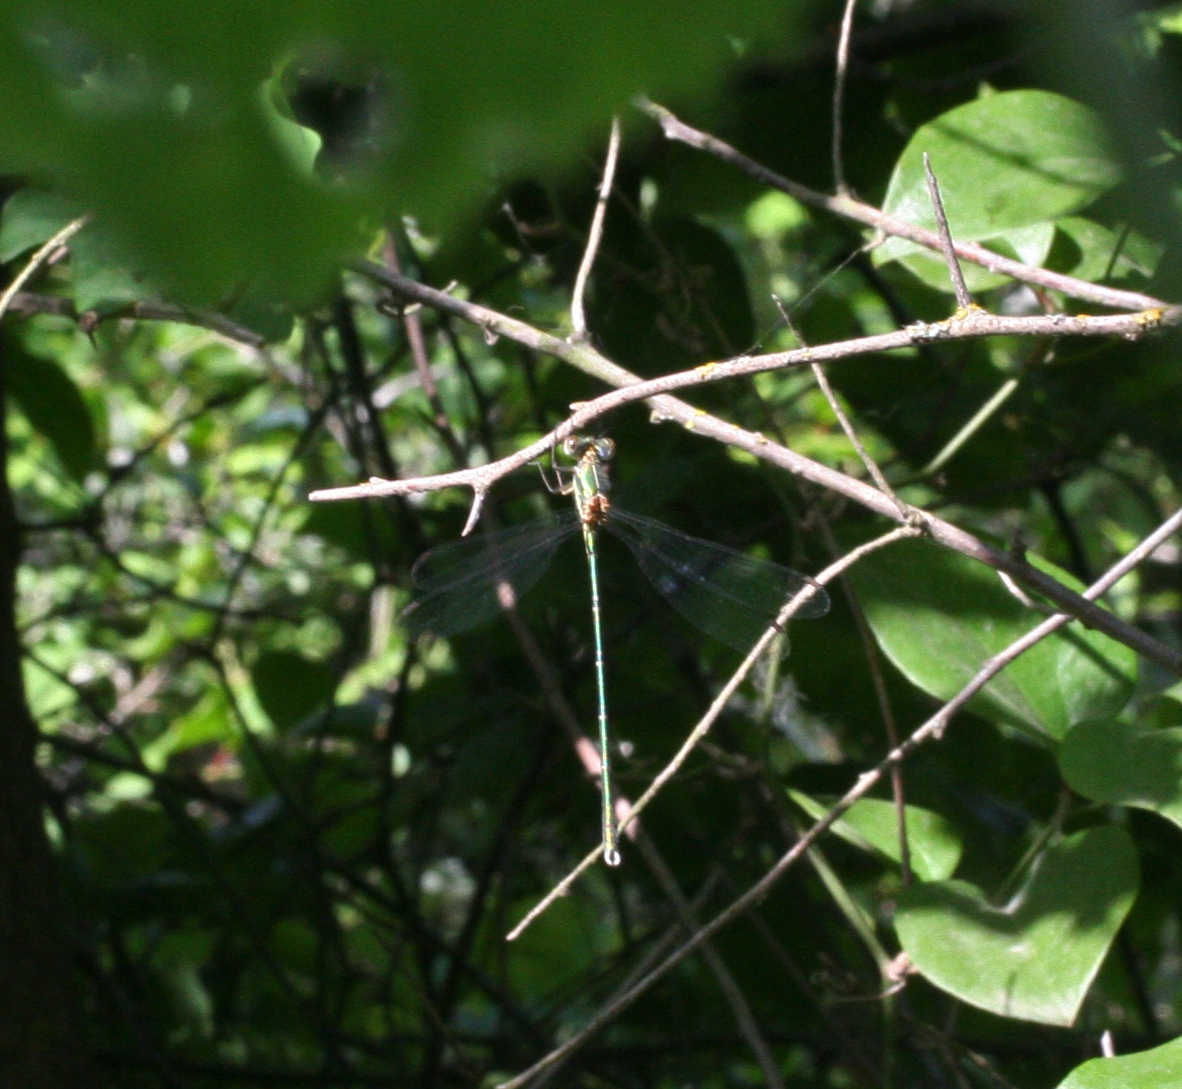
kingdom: Animalia
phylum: Arthropoda
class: Insecta
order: Odonata
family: Lestidae
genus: Chalcolestes
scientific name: Chalcolestes parvidens
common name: Eastern willow spreadwing
